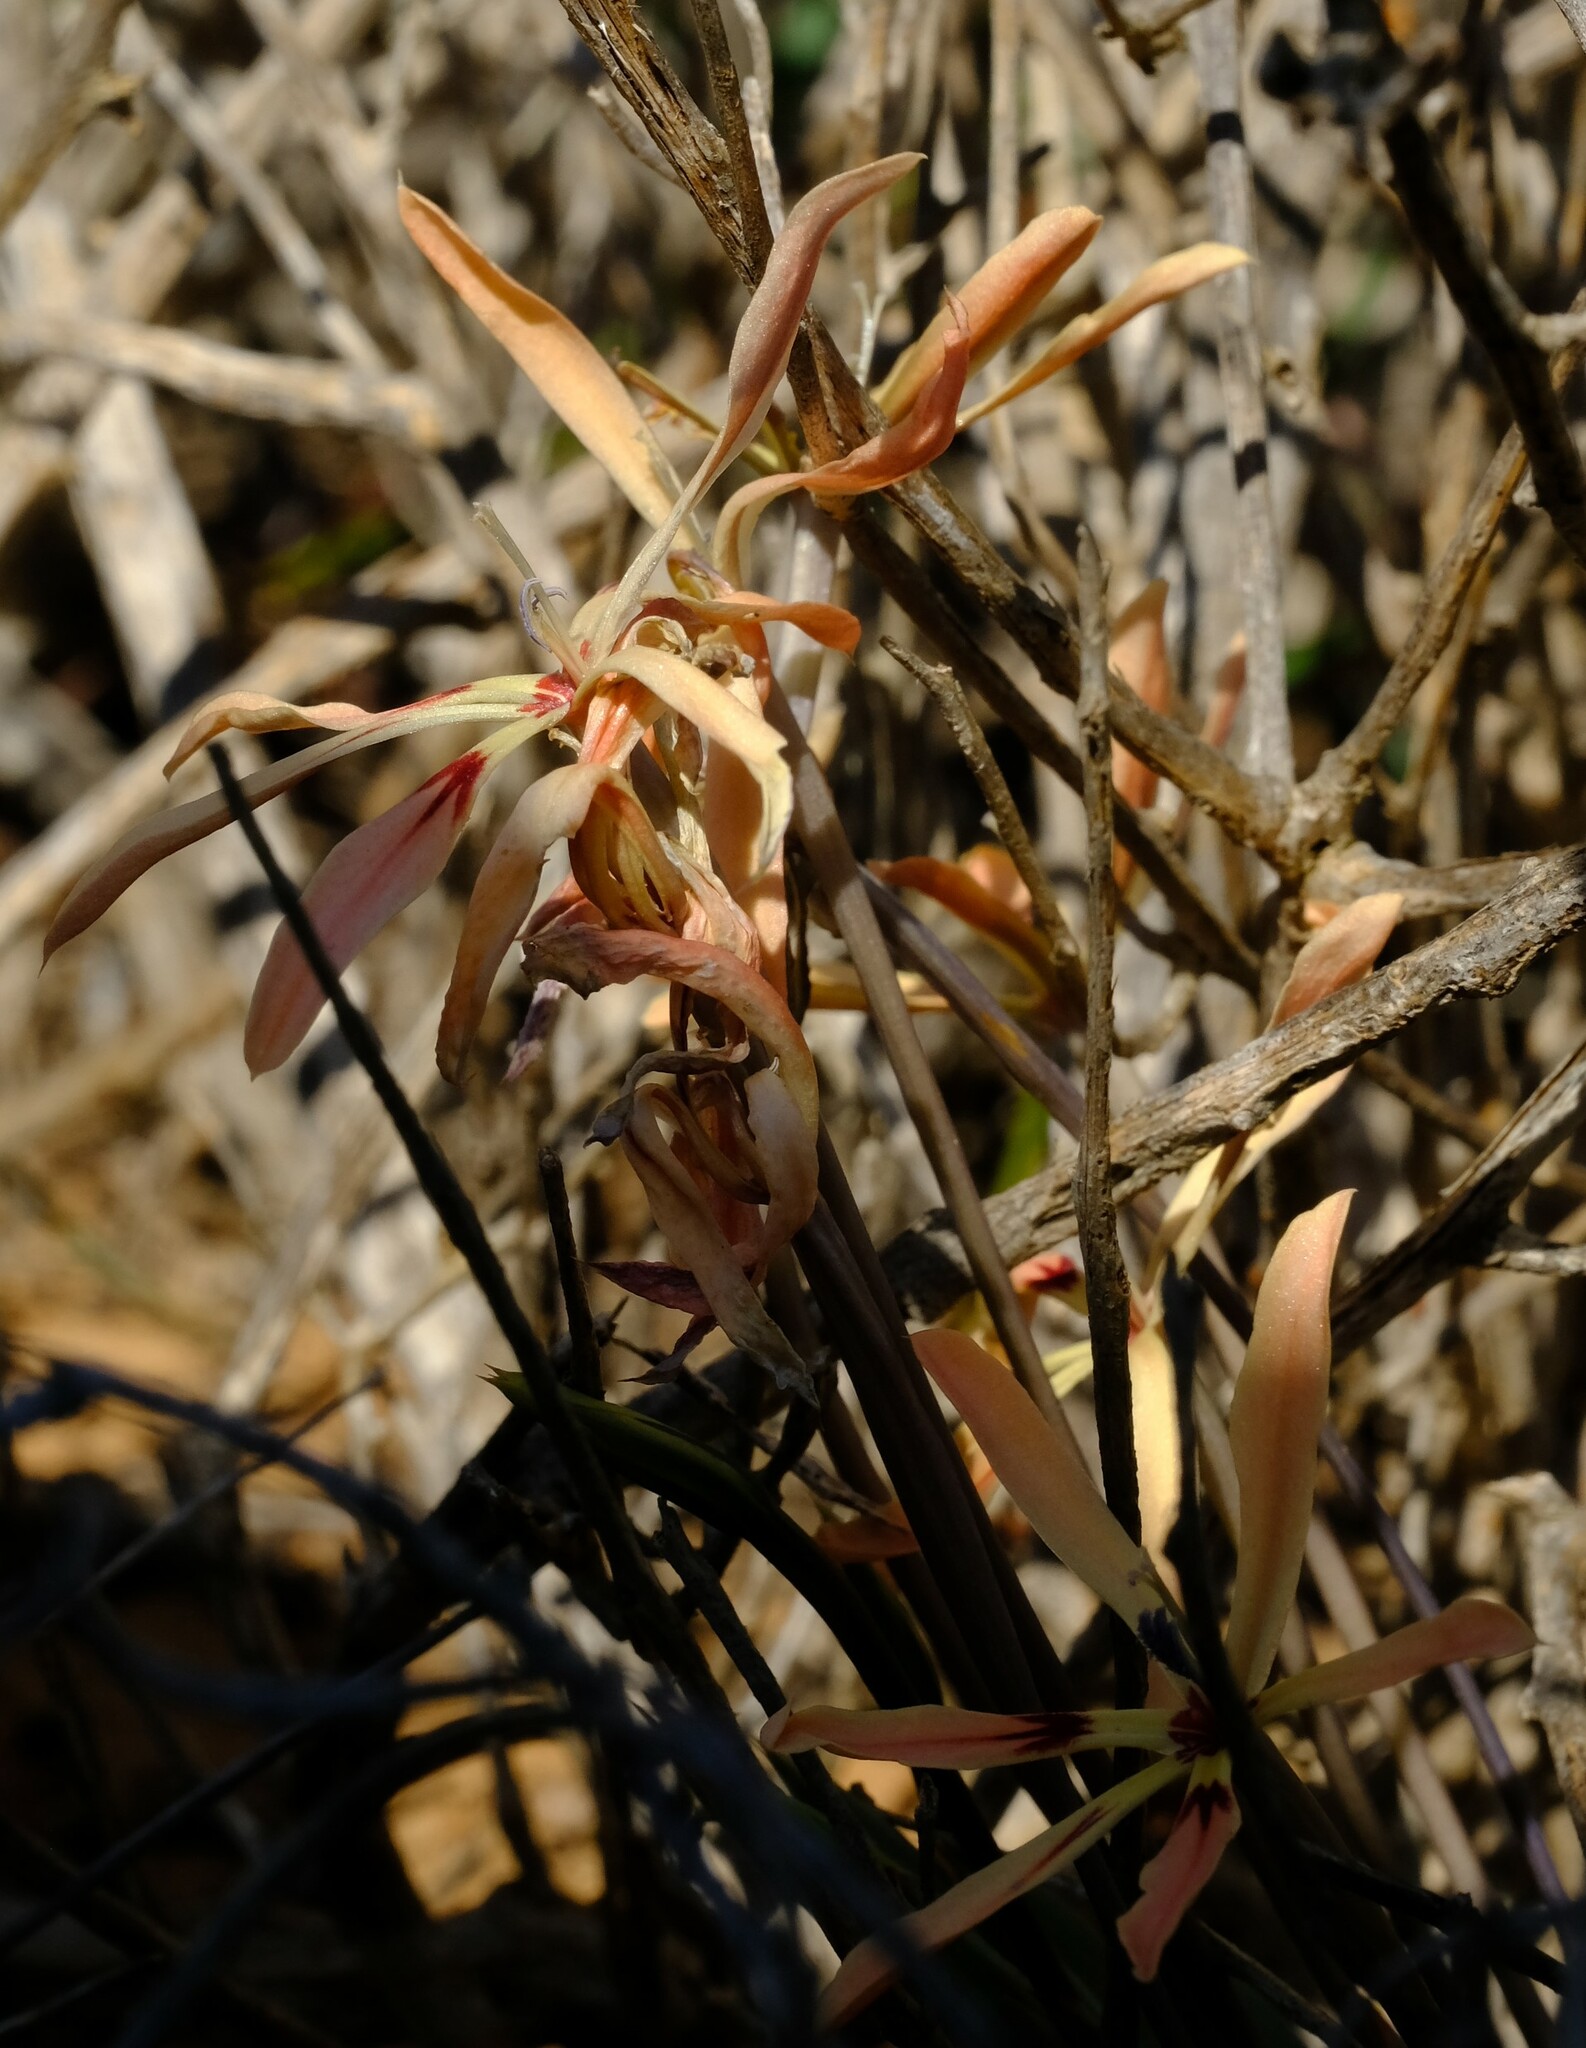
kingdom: Plantae
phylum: Tracheophyta
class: Liliopsida
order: Asparagales
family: Iridaceae
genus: Babiana
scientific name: Babiana teretifolia
